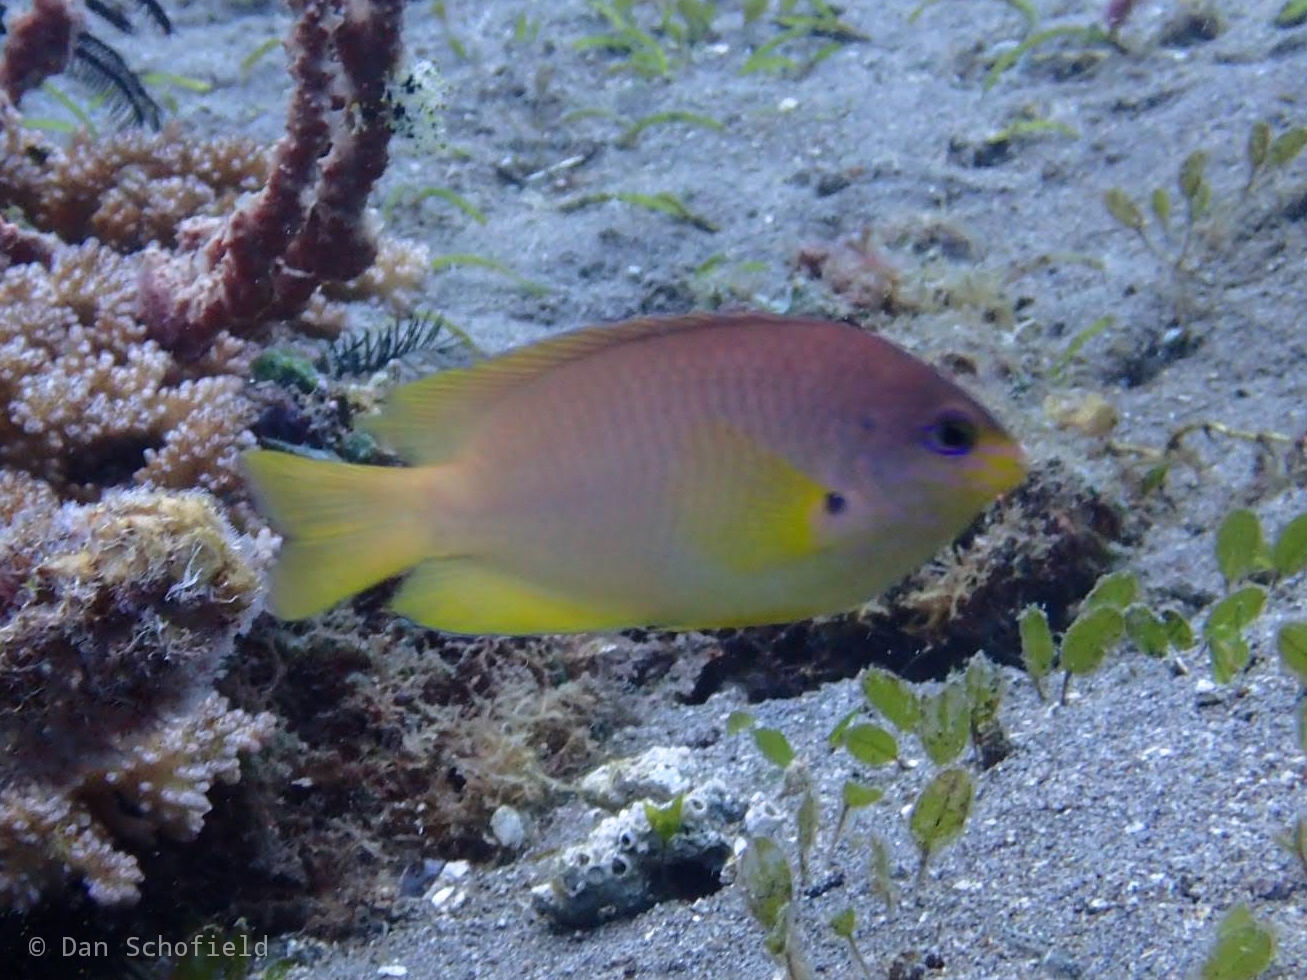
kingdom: Animalia
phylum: Chordata
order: Perciformes
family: Pomacentridae
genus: Pomacentrus
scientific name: Pomacentrus amboinensis
